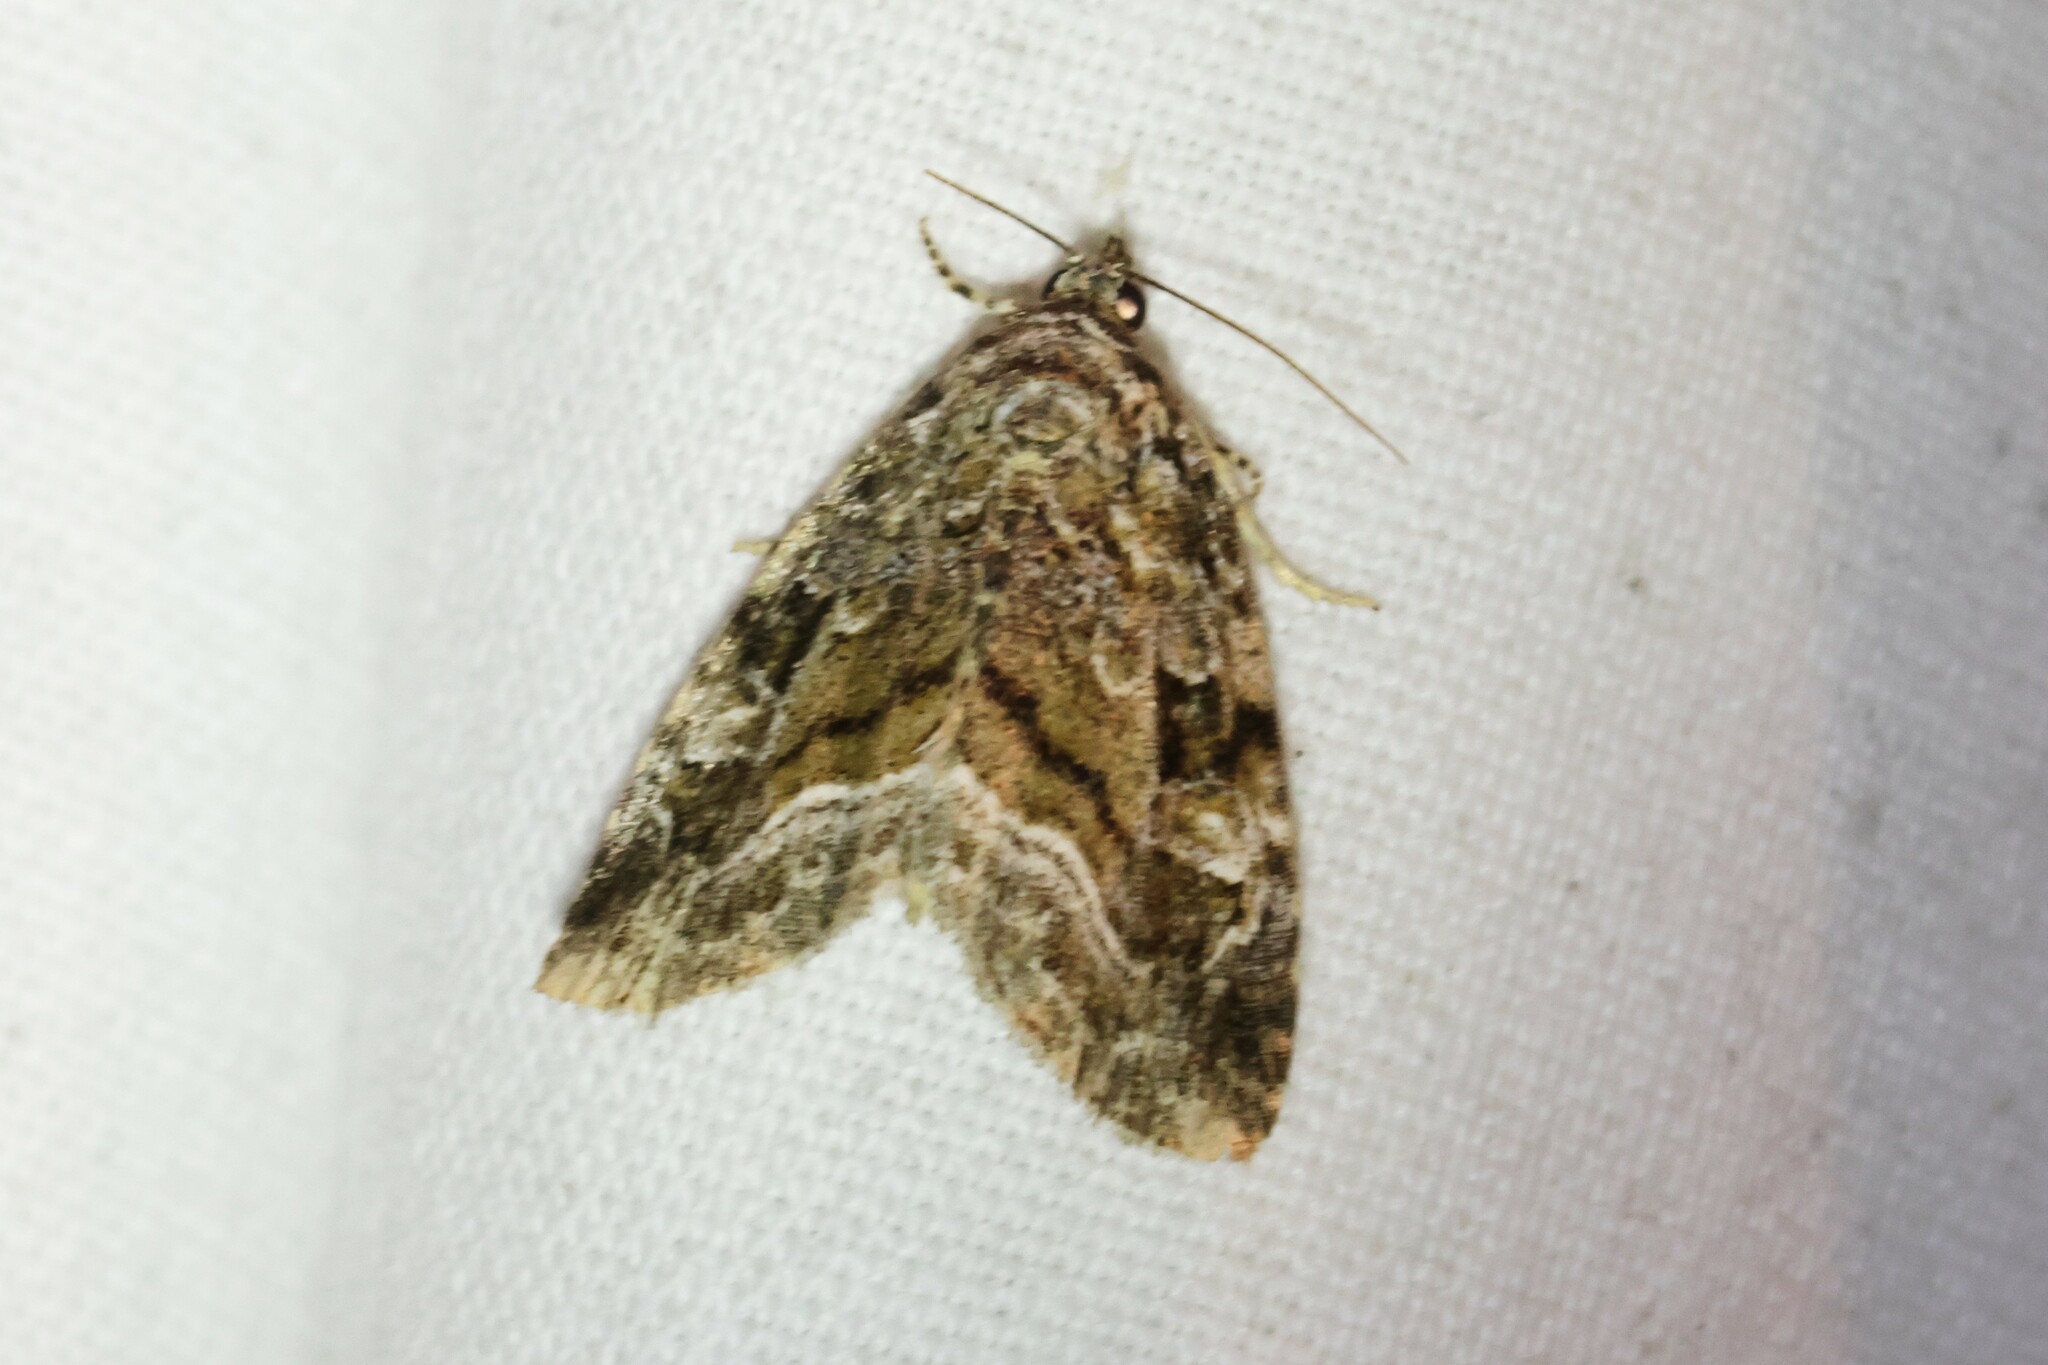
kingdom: Animalia
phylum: Arthropoda
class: Insecta
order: Lepidoptera
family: Noctuidae
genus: Protodeltote
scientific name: Protodeltote muscosula
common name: Large mossy glyph
